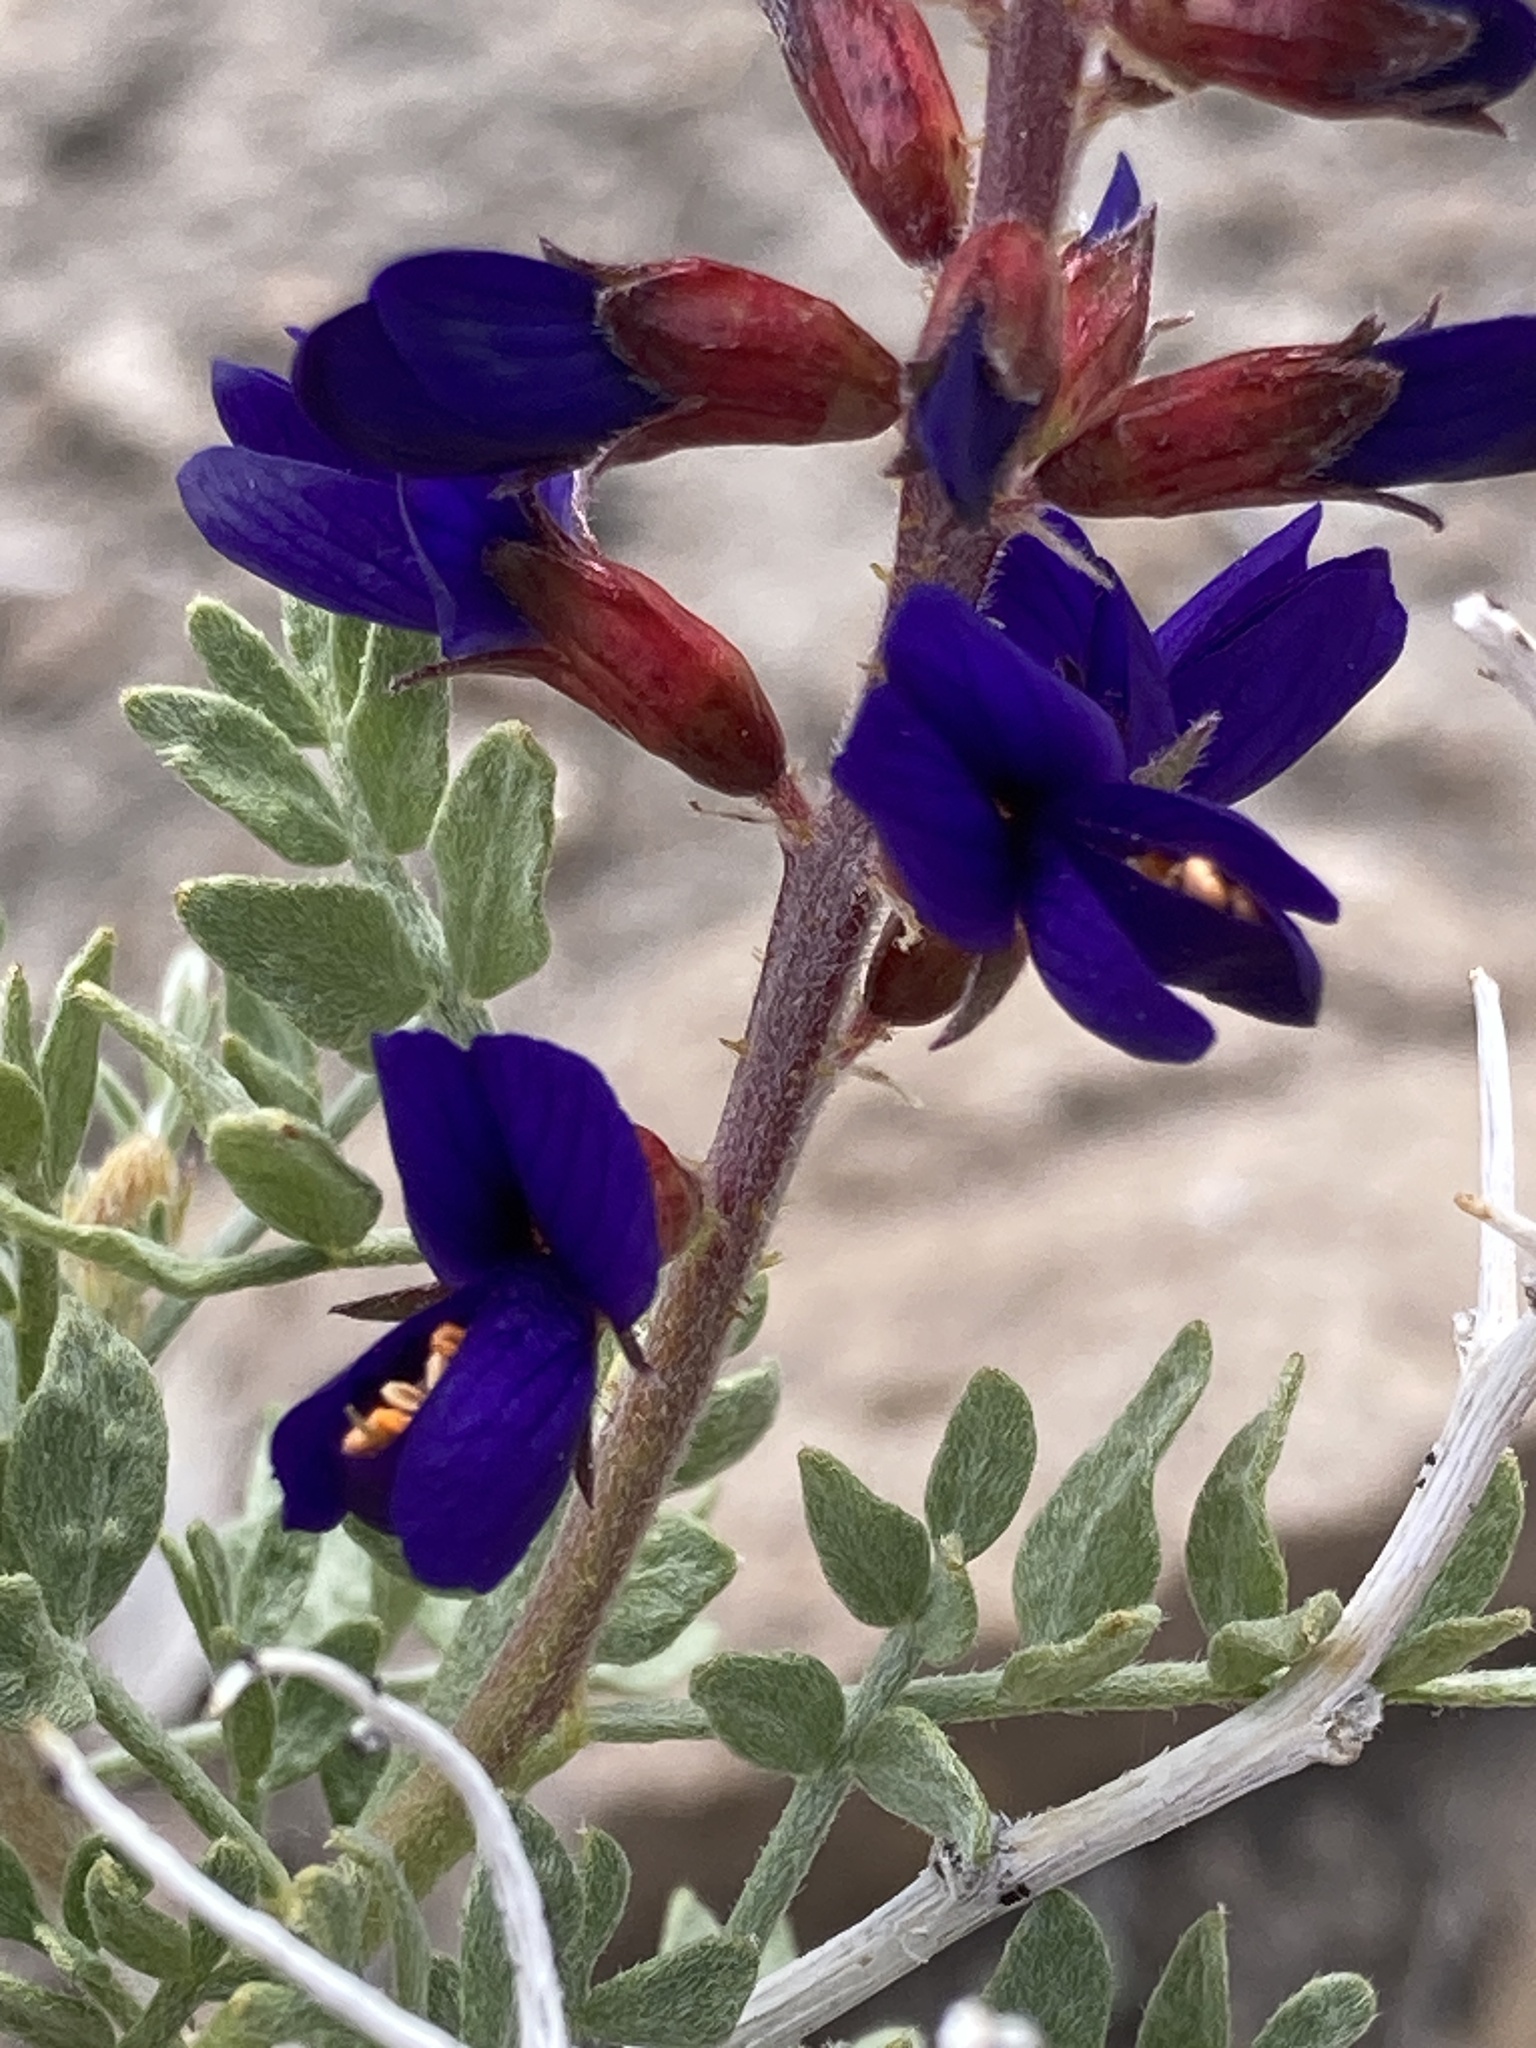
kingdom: Plantae
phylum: Tracheophyta
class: Magnoliopsida
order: Fabales
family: Fabaceae
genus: Psorothamnus
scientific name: Psorothamnus arborescens
